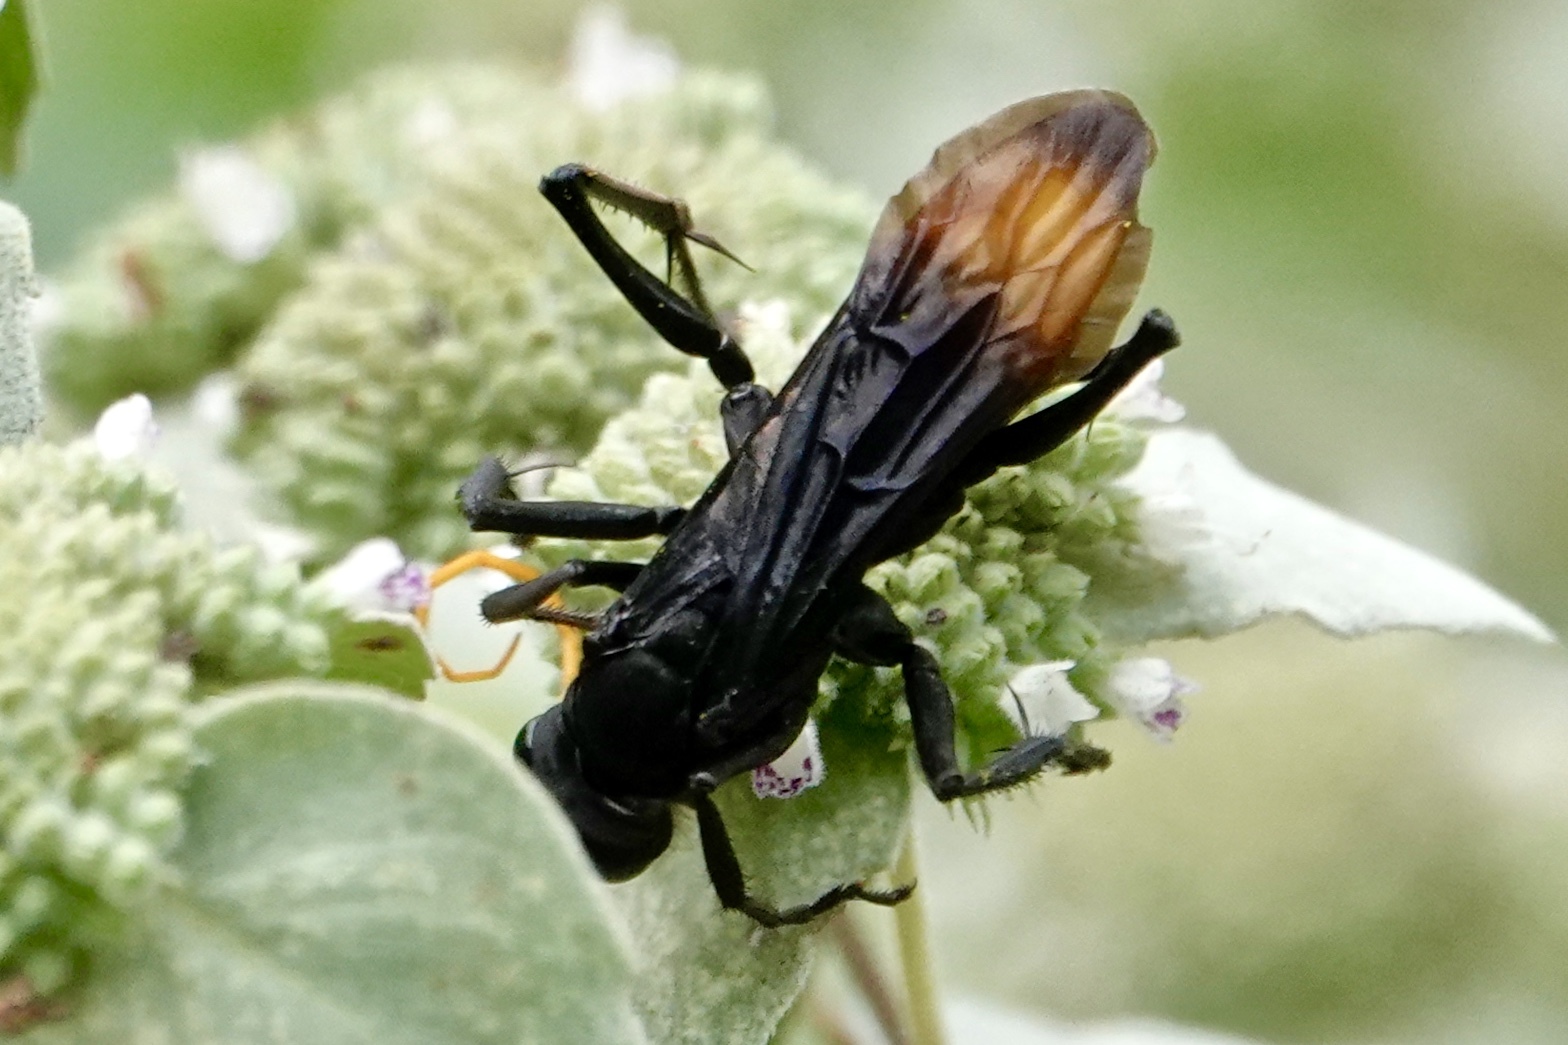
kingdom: Animalia
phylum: Arthropoda
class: Insecta
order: Hymenoptera
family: Pompilidae
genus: Entypus
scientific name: Entypus unifasciatus
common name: Eastern tawny-horned spider wasp
